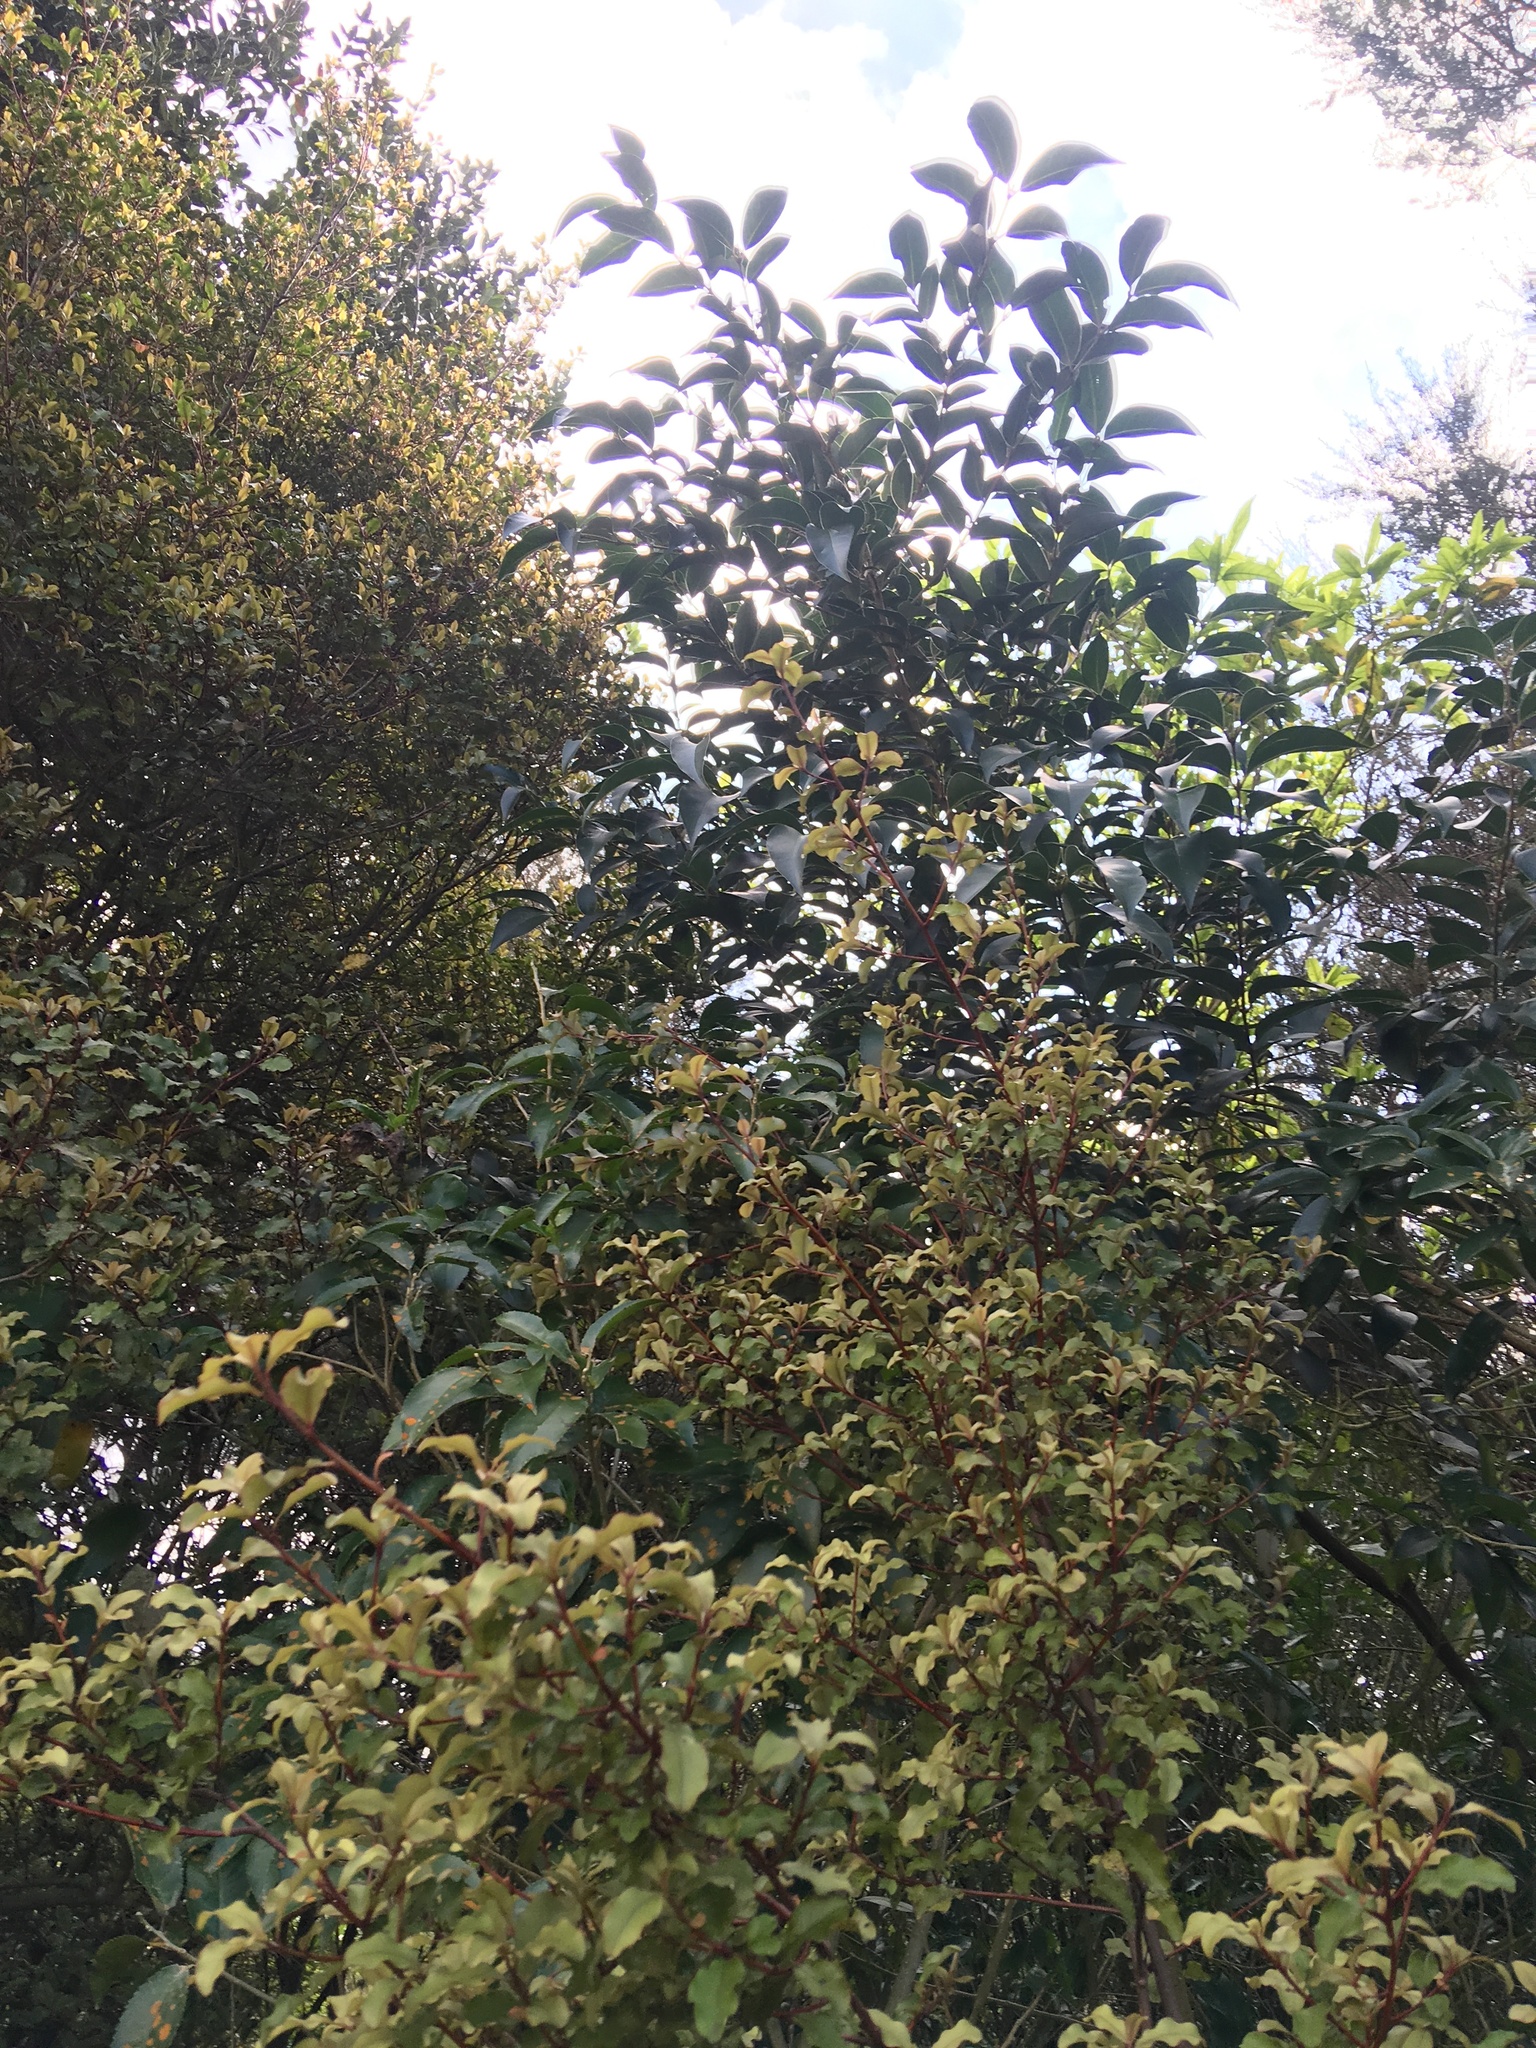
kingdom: Plantae
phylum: Tracheophyta
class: Magnoliopsida
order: Lamiales
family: Oleaceae
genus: Ligustrum
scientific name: Ligustrum lucidum
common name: Glossy privet
